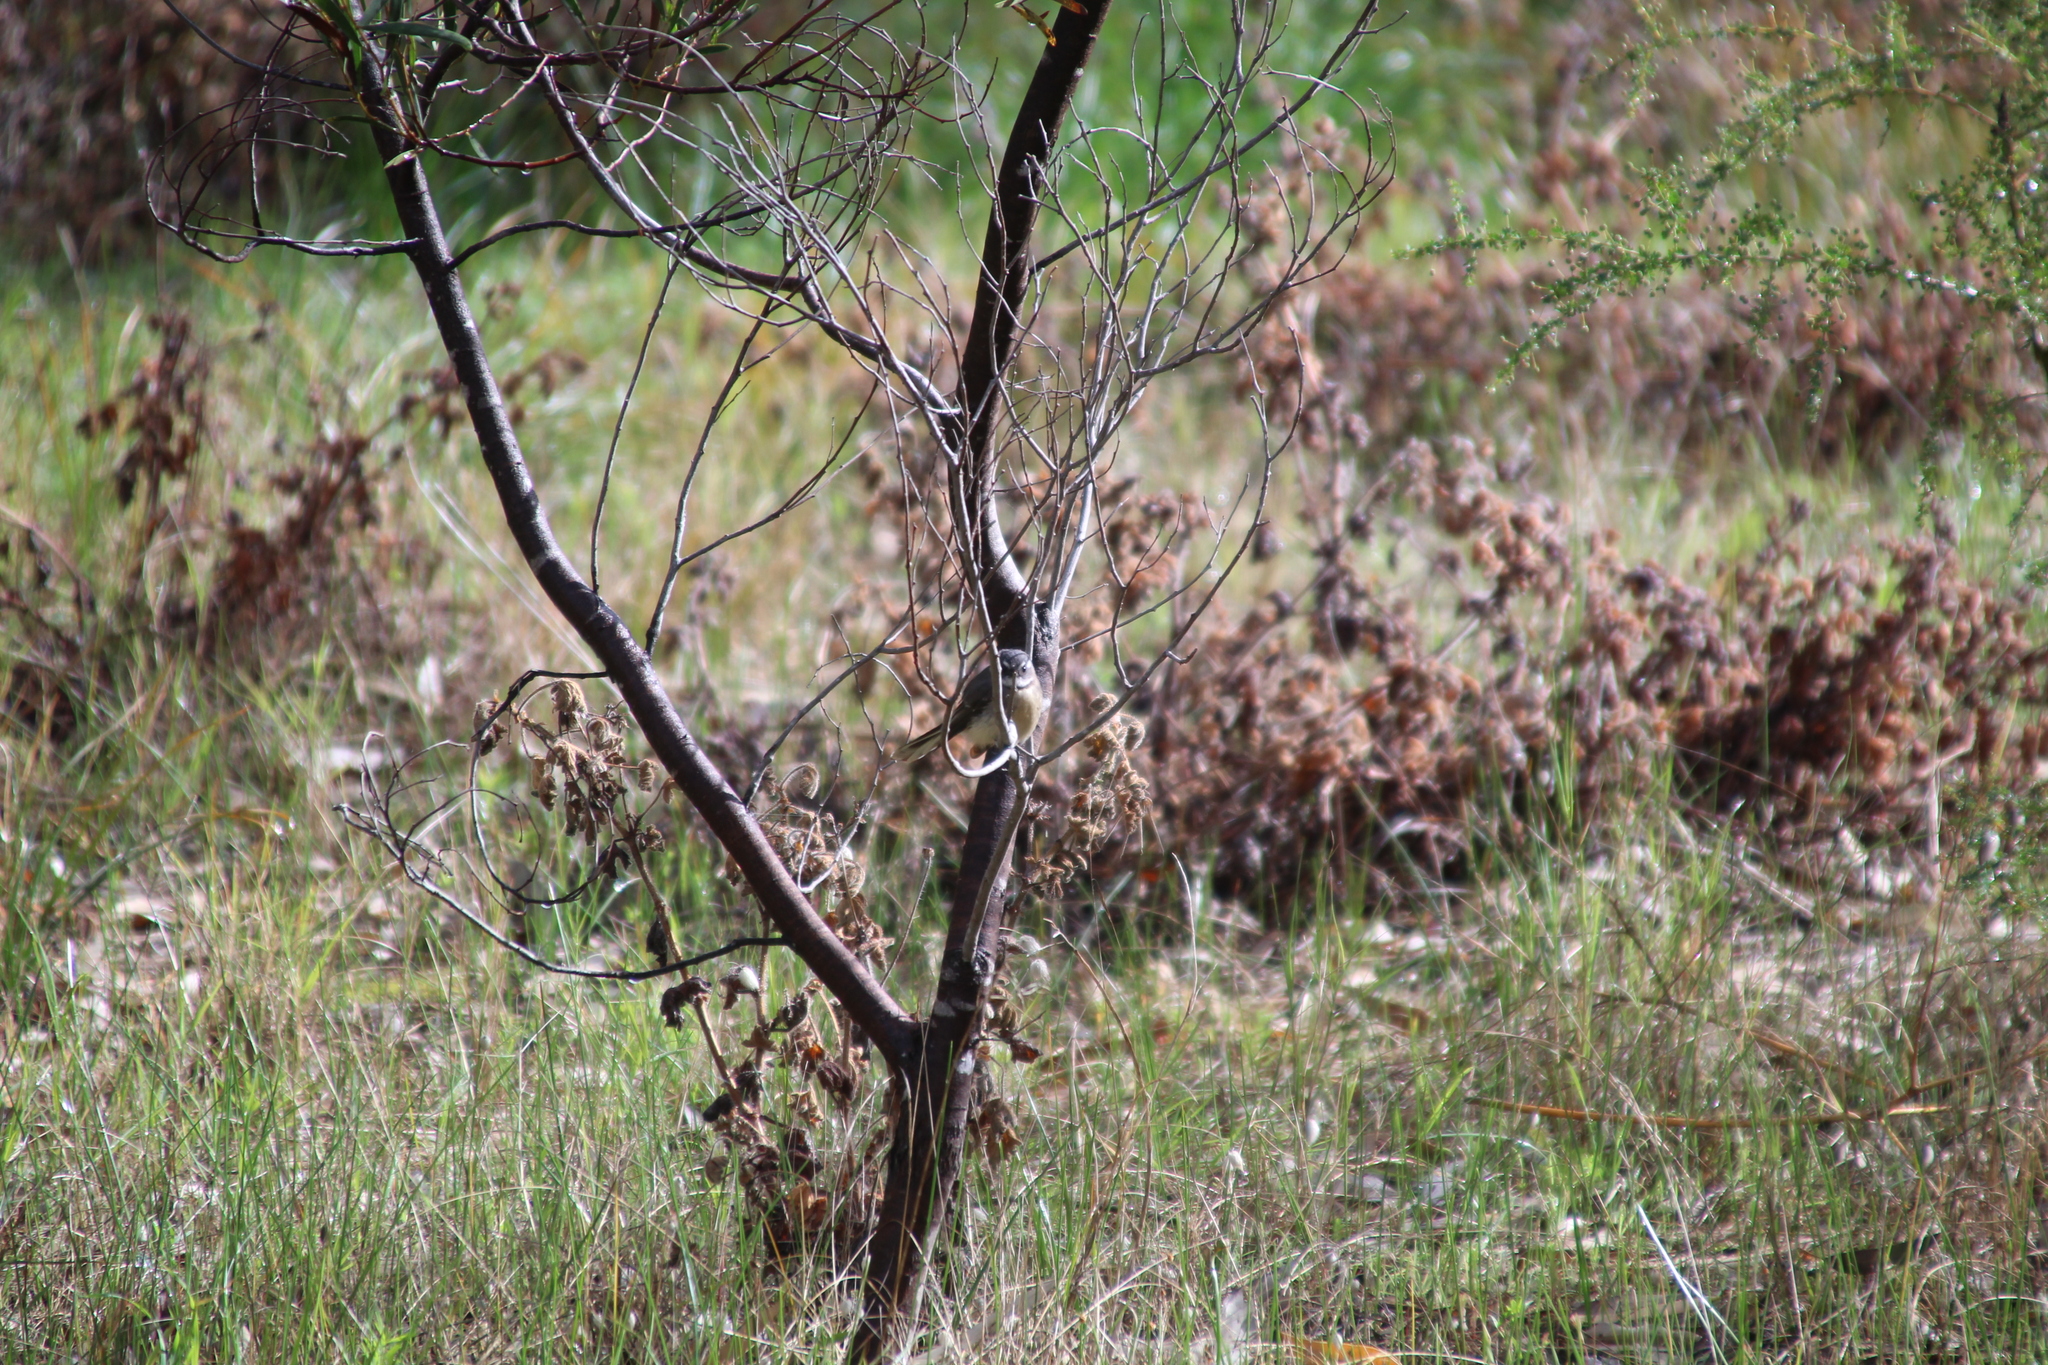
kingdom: Animalia
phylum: Chordata
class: Aves
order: Passeriformes
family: Rhipiduridae
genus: Rhipidura
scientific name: Rhipidura albiscapa
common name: Grey fantail
